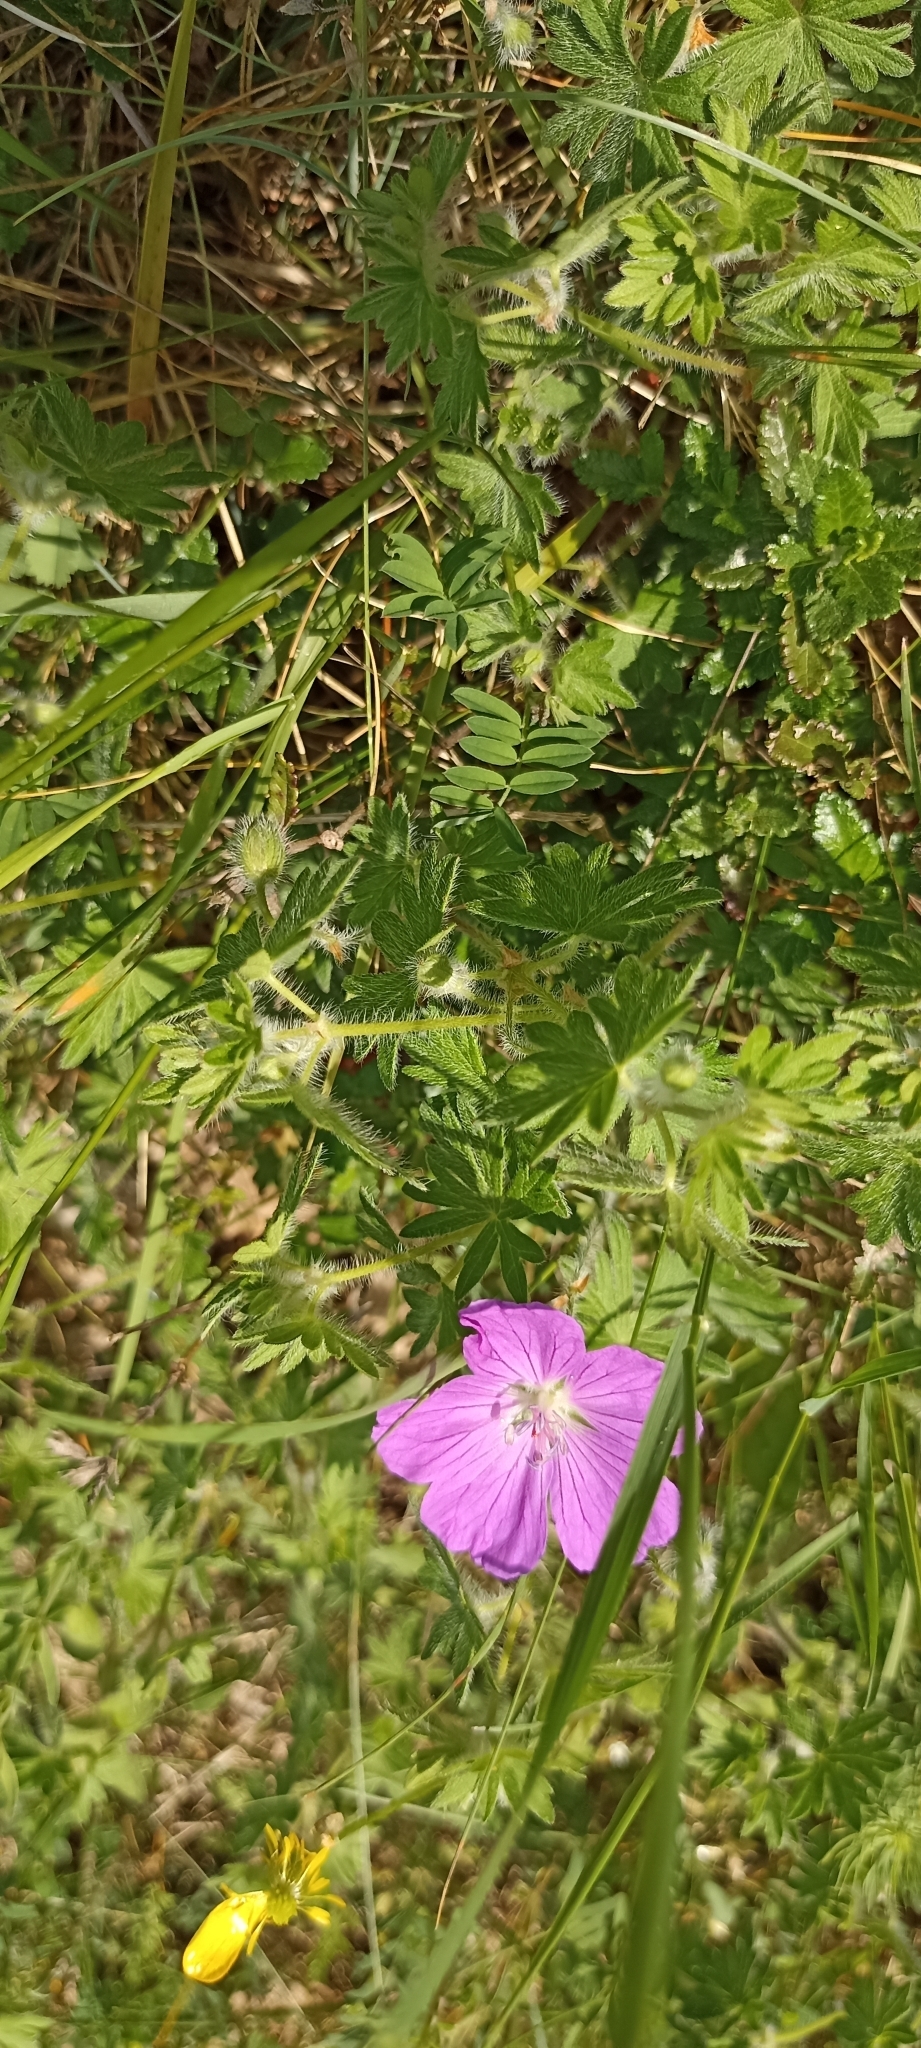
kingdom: Plantae
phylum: Tracheophyta
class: Magnoliopsida
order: Geraniales
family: Geraniaceae
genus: Geranium
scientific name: Geranium sanguineum
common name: Bloody crane's-bill
